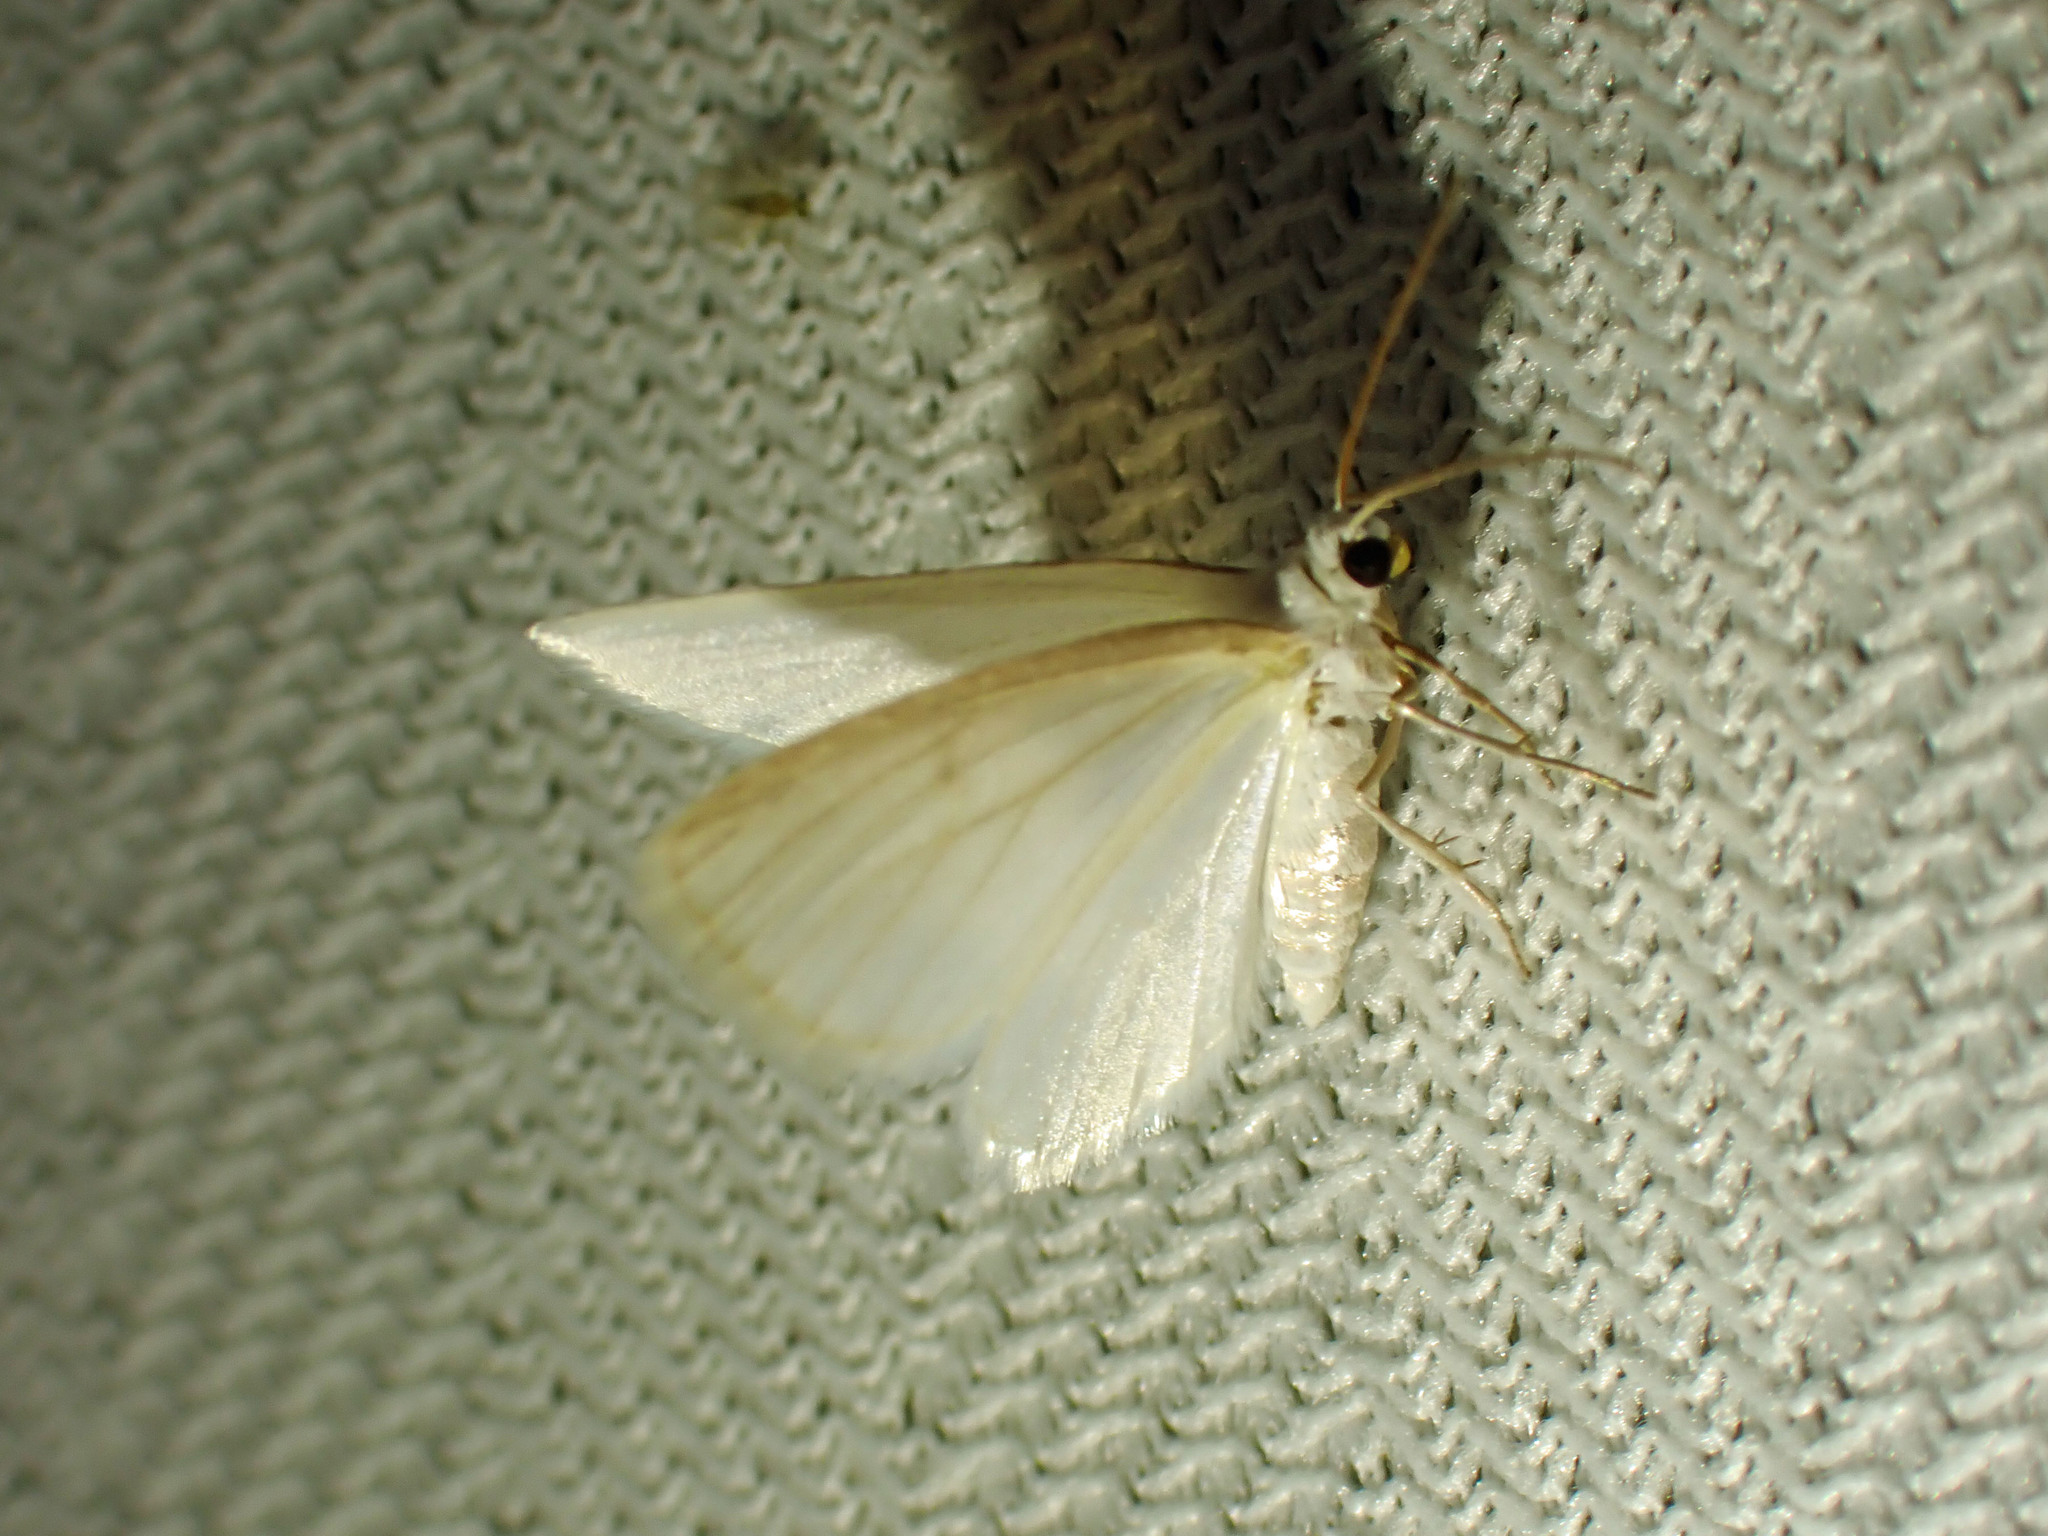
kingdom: Animalia
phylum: Arthropoda
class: Insecta
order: Lepidoptera
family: Geometridae
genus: Lomographa
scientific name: Lomographa vestaliata
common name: White spring moth
